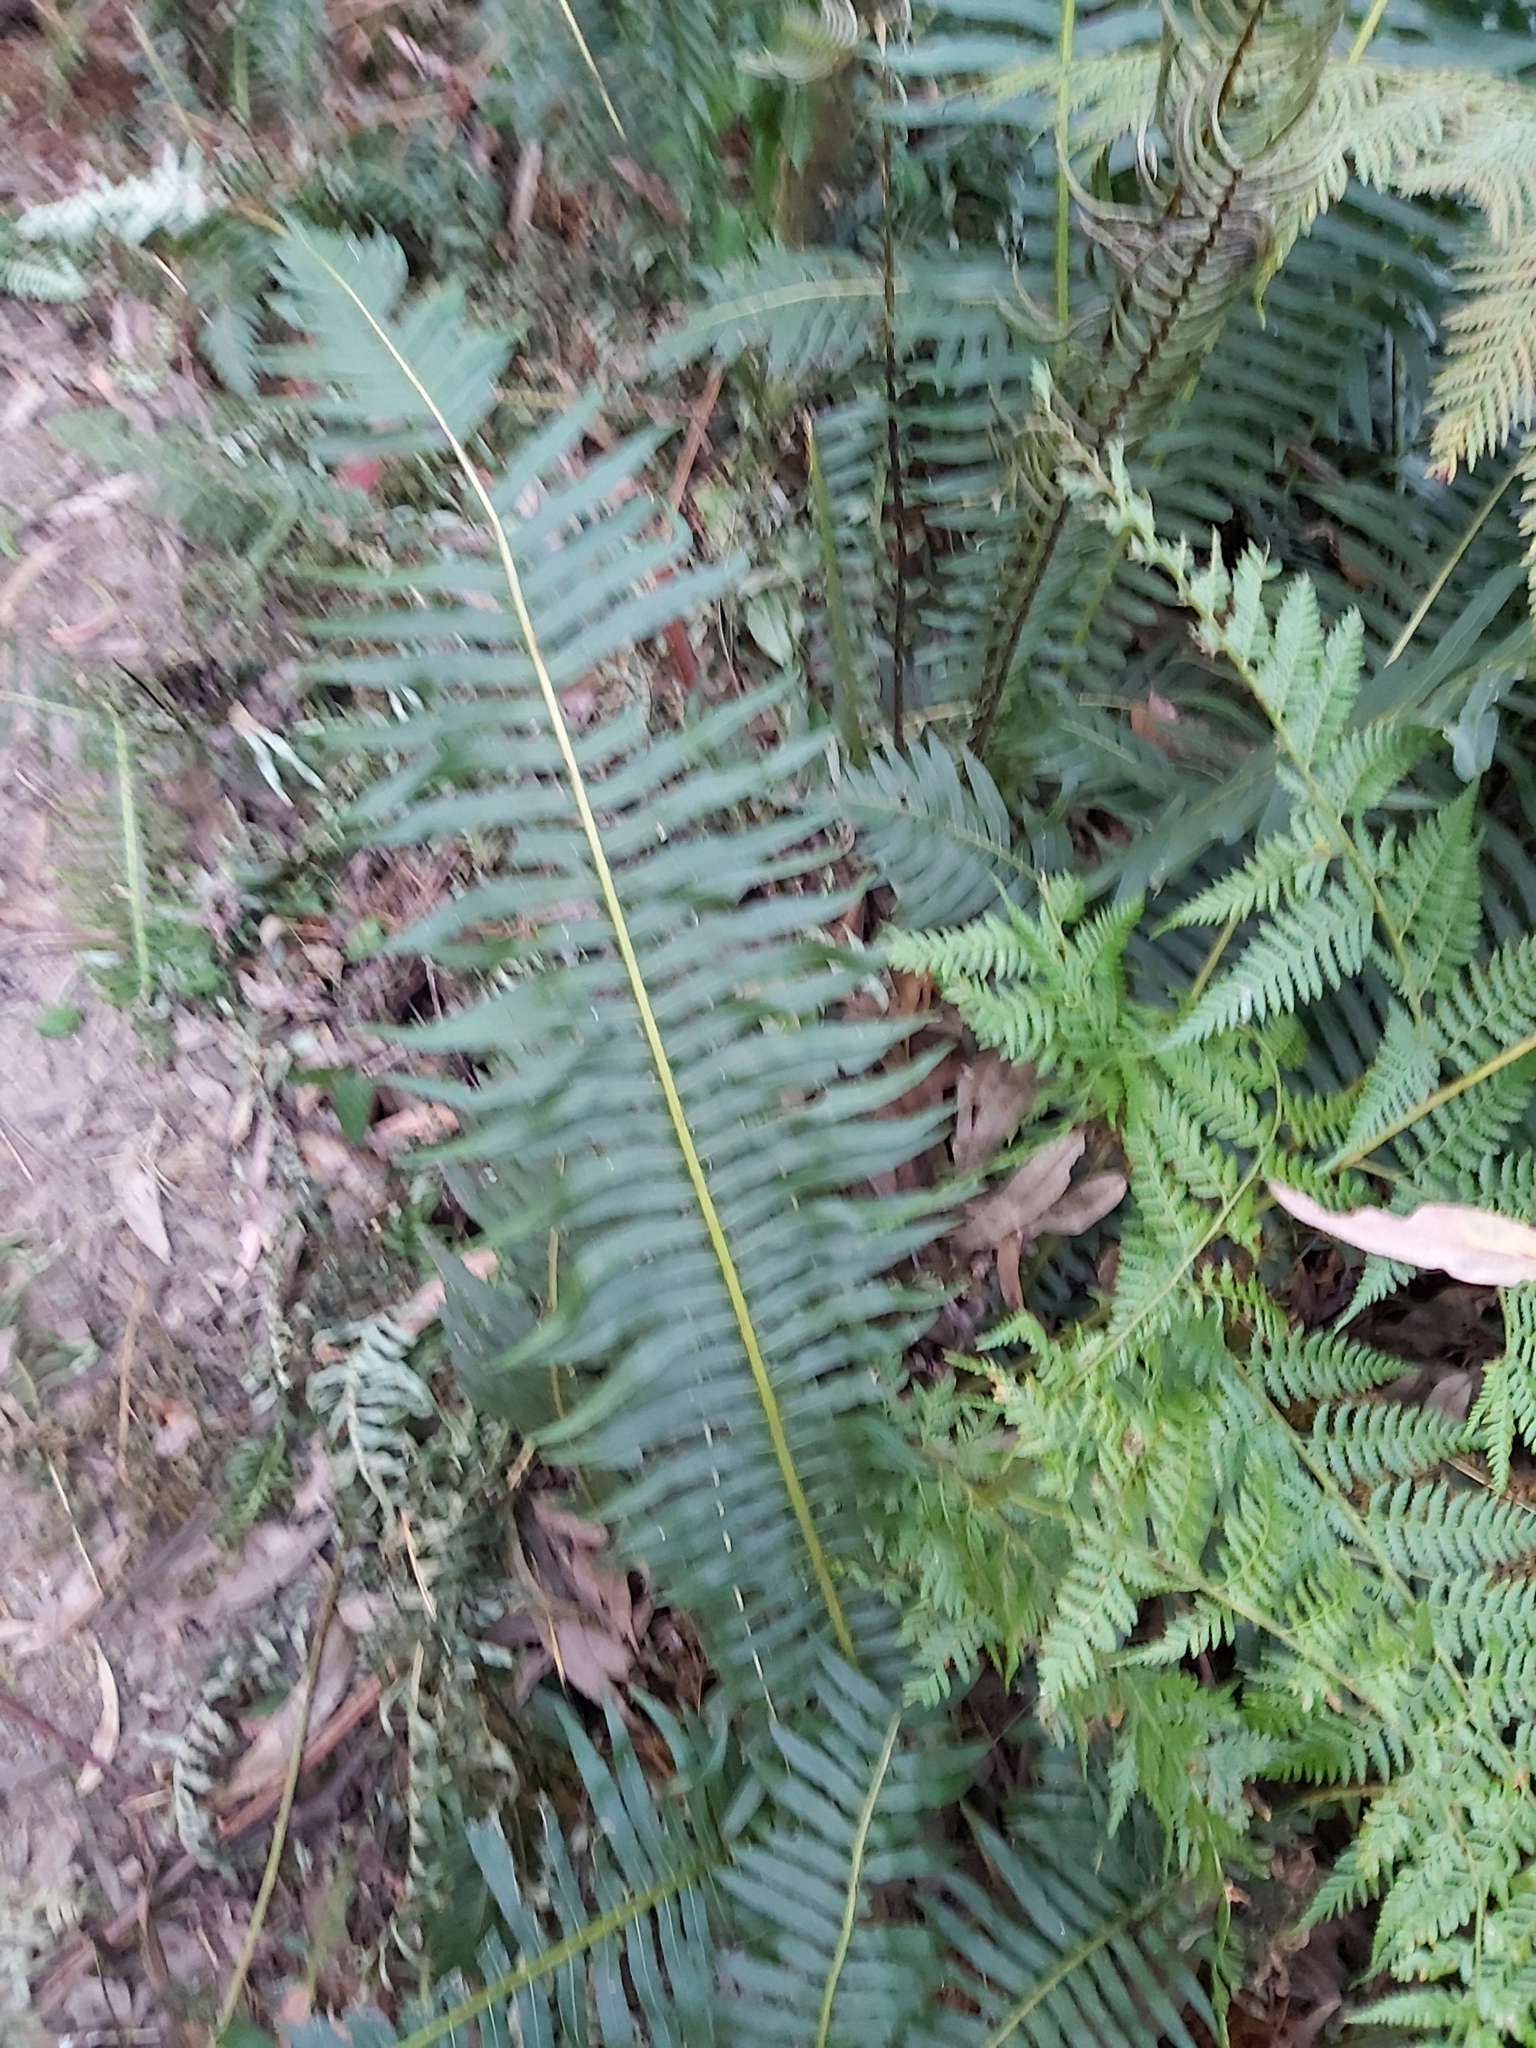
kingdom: Plantae
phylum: Tracheophyta
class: Polypodiopsida
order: Polypodiales
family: Blechnaceae
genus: Lomaria
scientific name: Lomaria nuda
